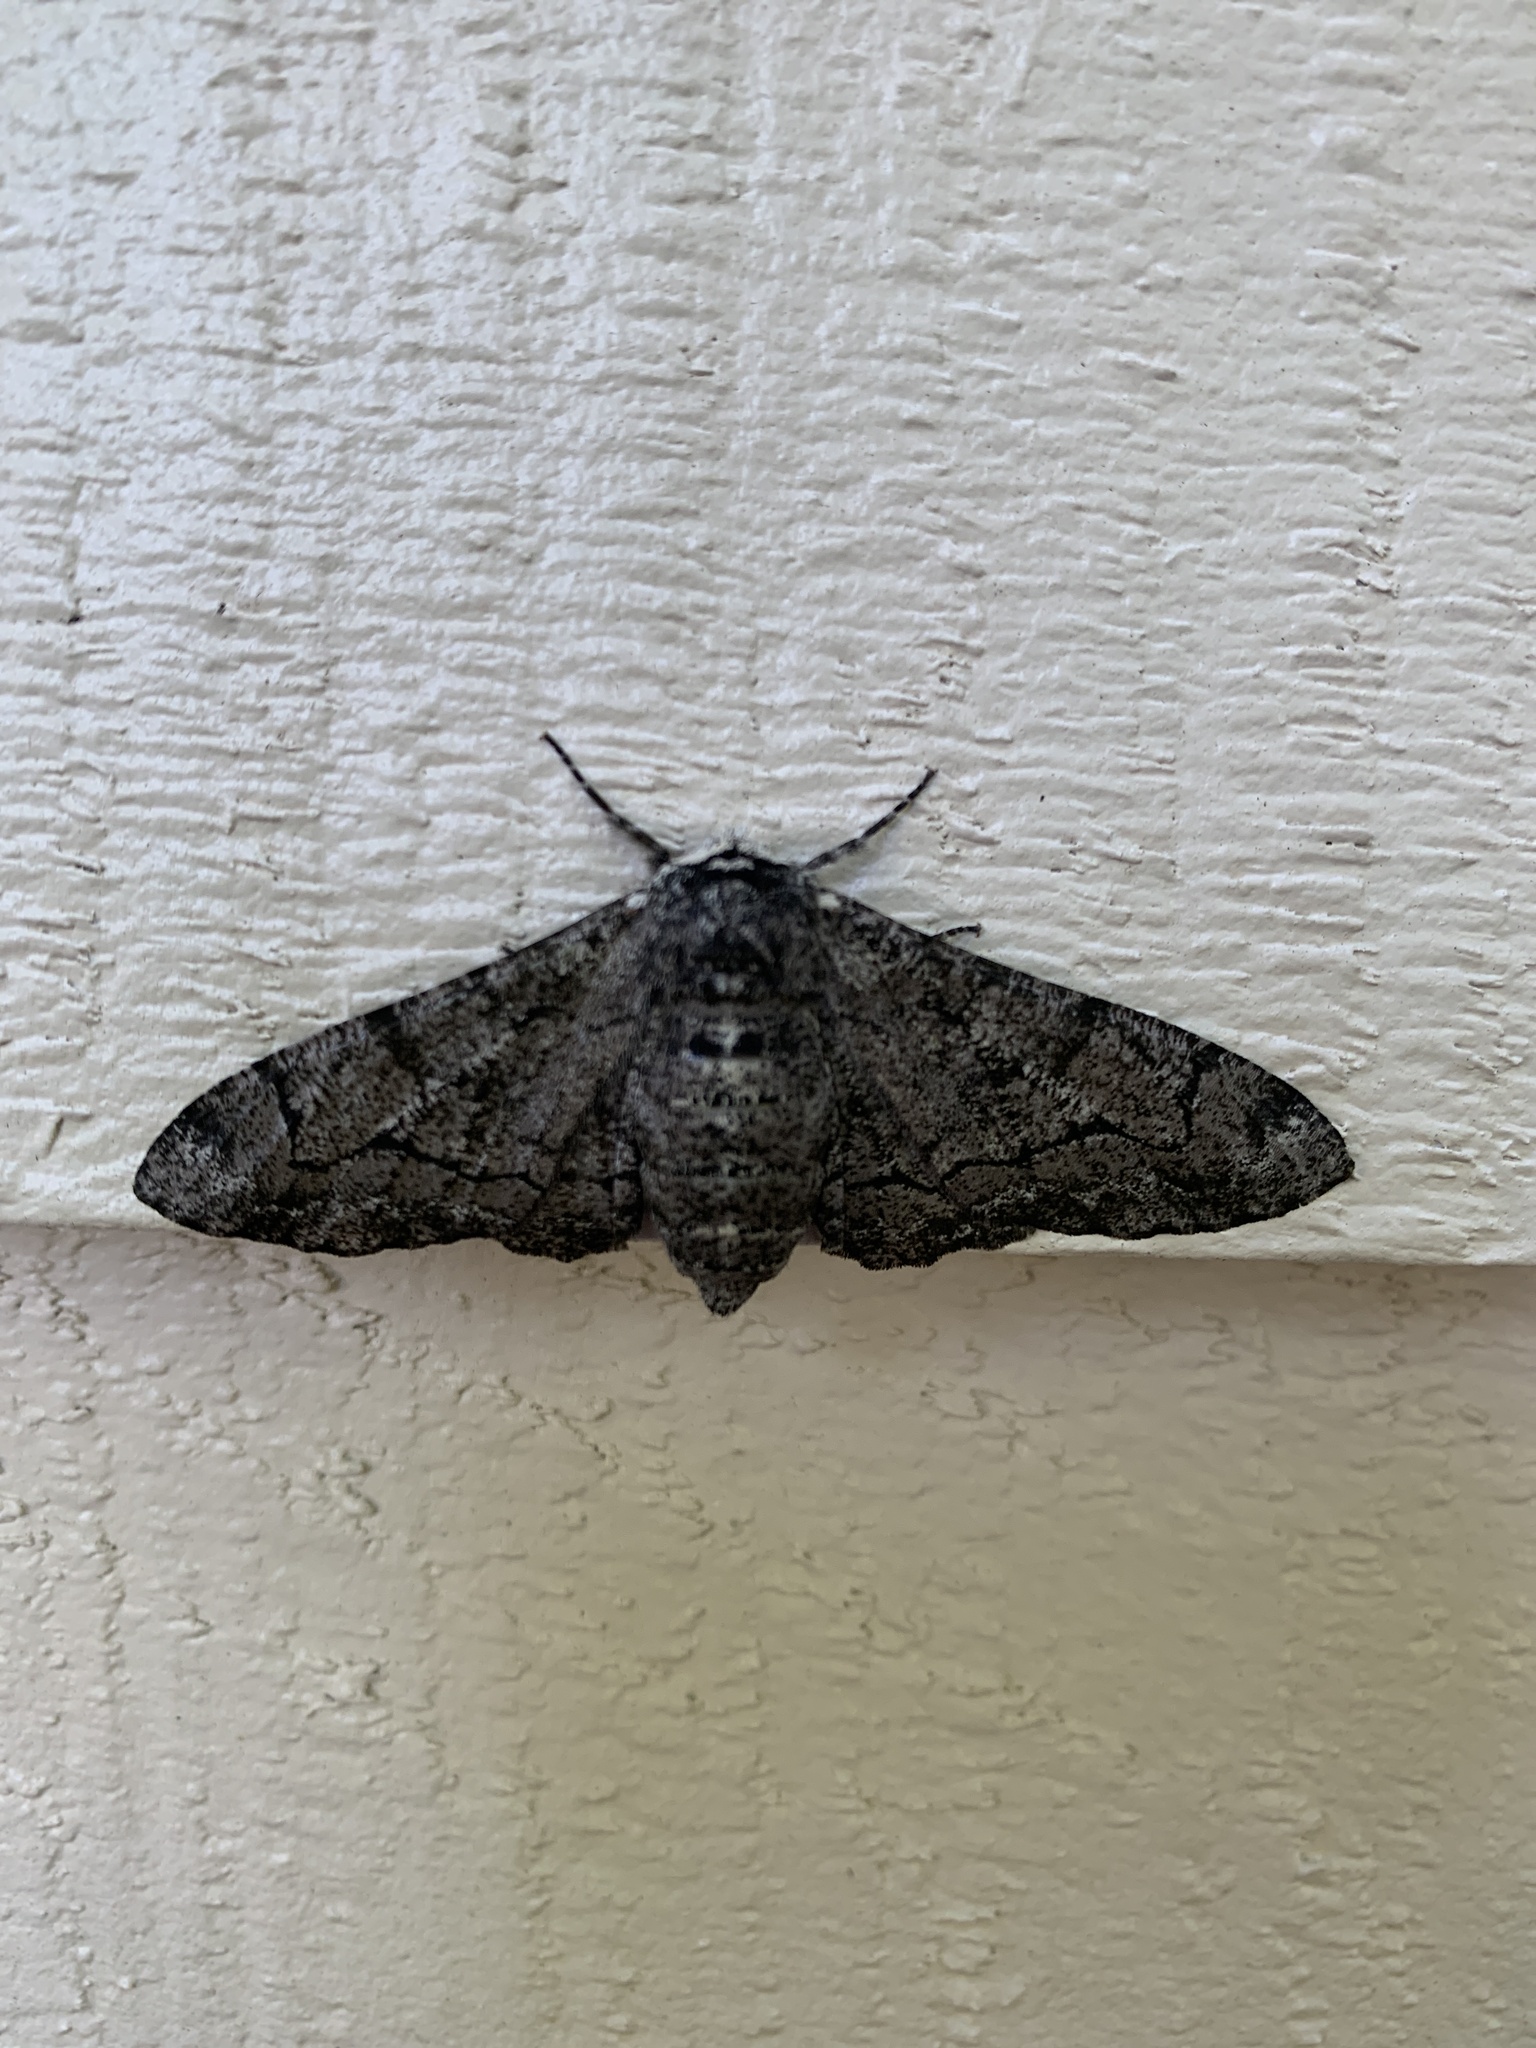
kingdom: Animalia
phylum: Arthropoda
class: Insecta
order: Lepidoptera
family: Geometridae
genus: Biston
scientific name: Biston betularia
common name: Peppered moth
